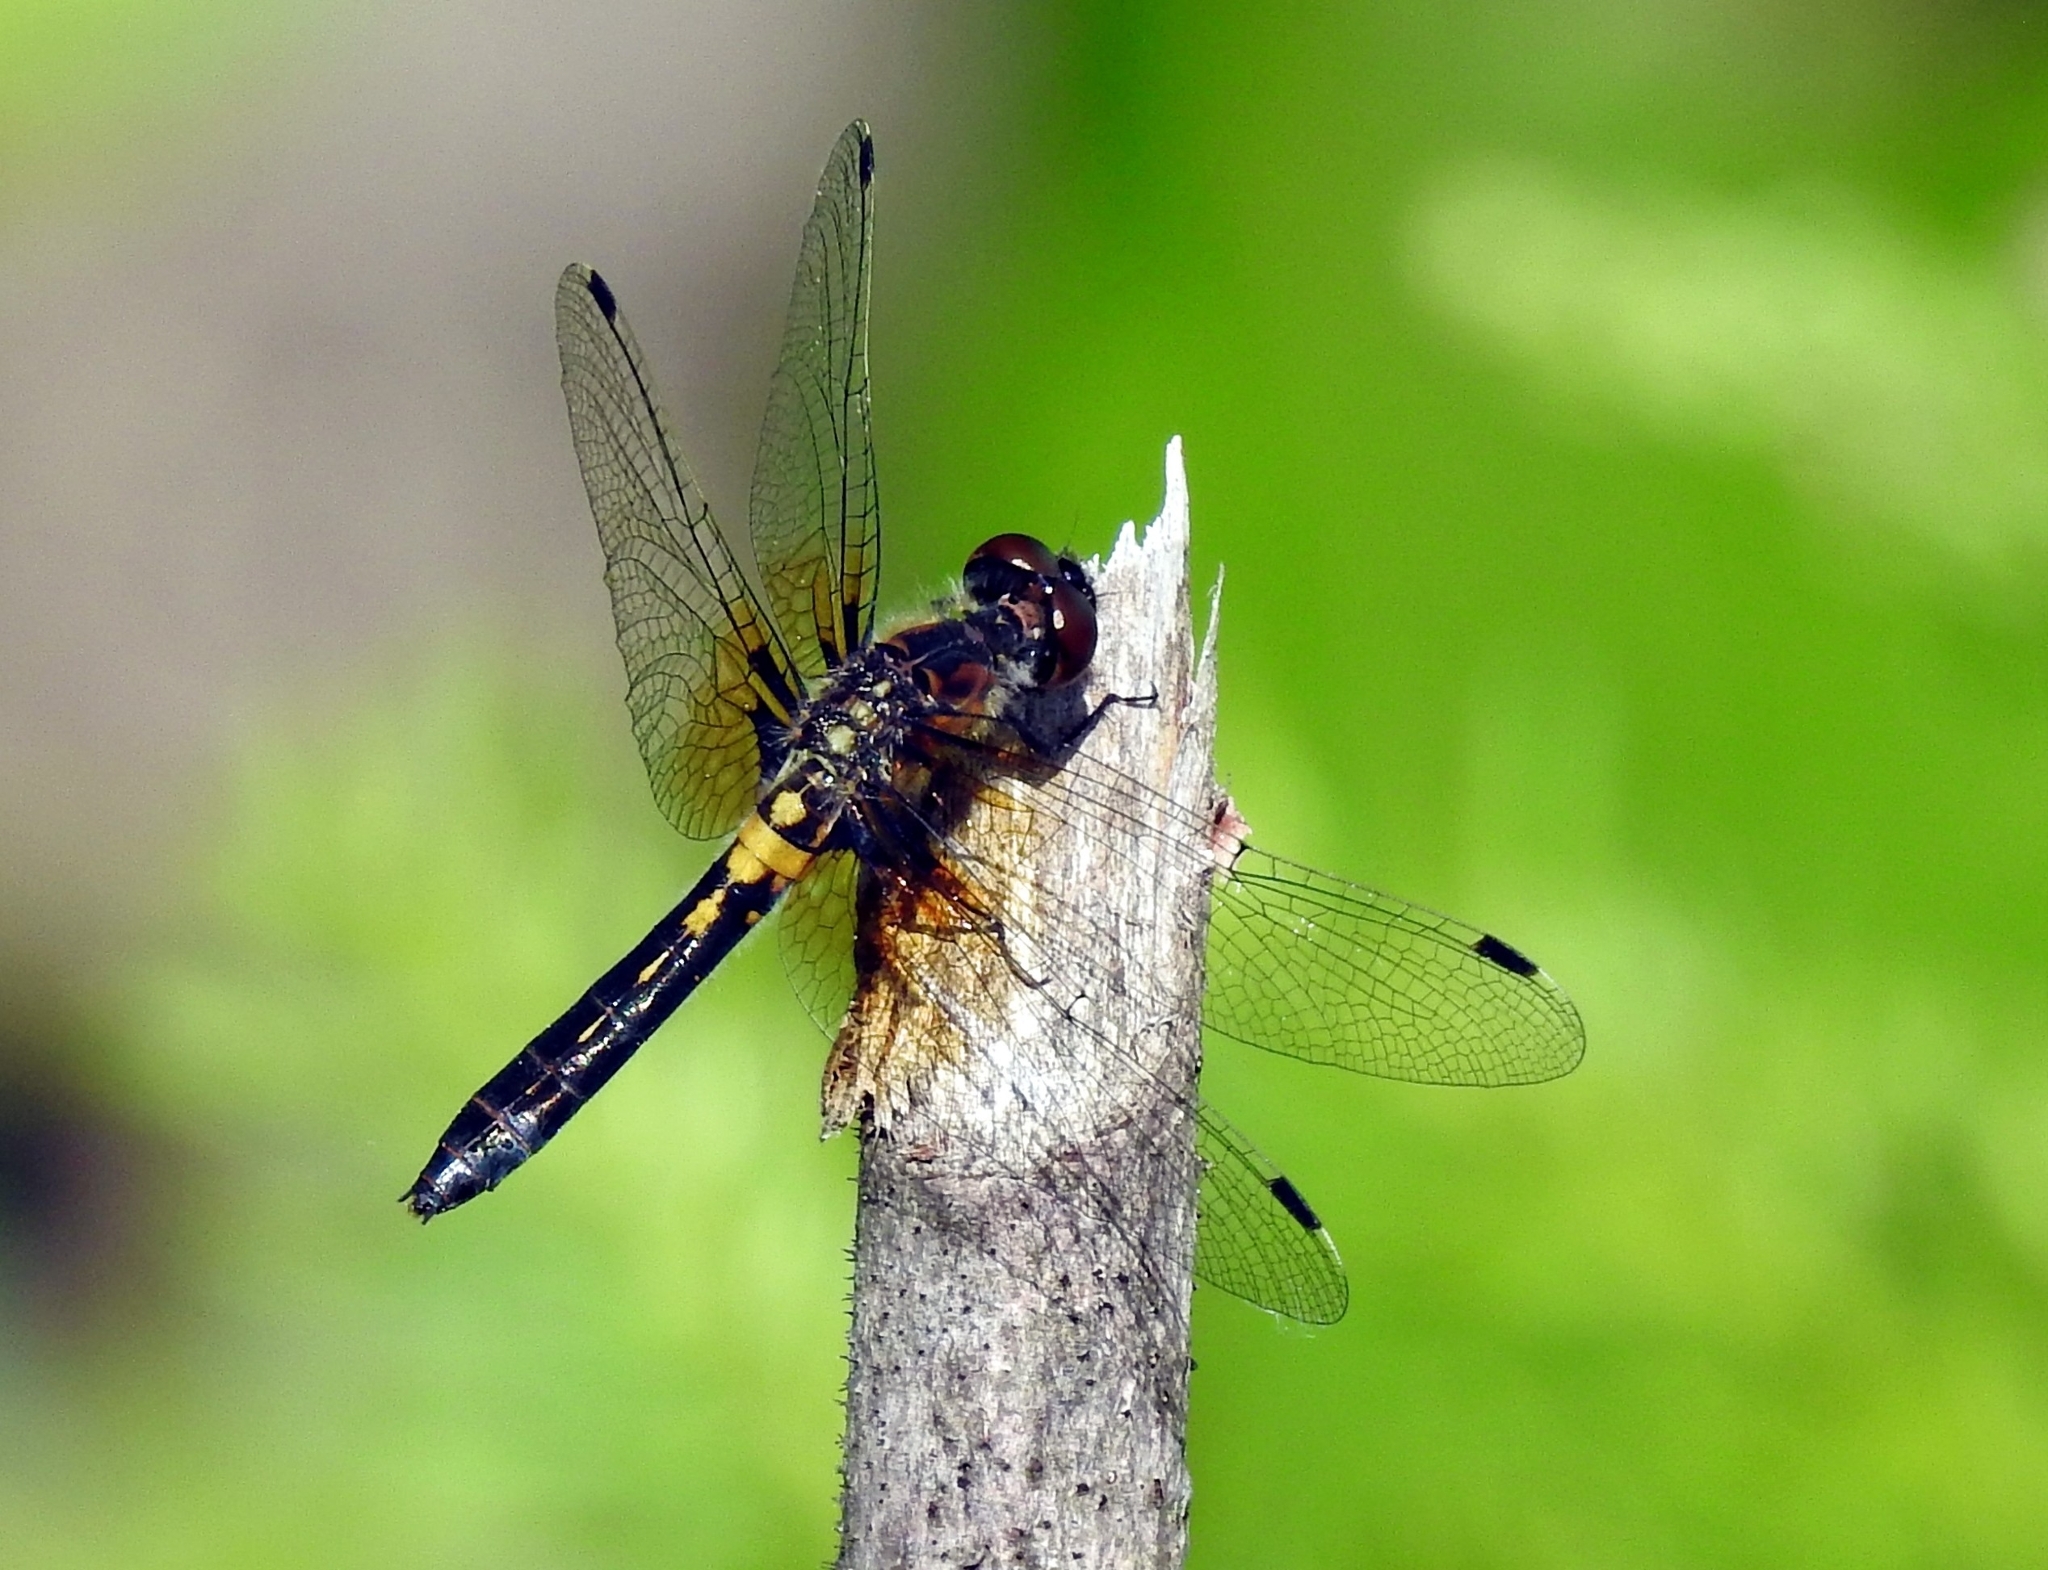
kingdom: Animalia
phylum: Arthropoda
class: Insecta
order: Odonata
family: Libellulidae
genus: Leucorrhinia
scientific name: Leucorrhinia frigida
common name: Frosted whiteface
